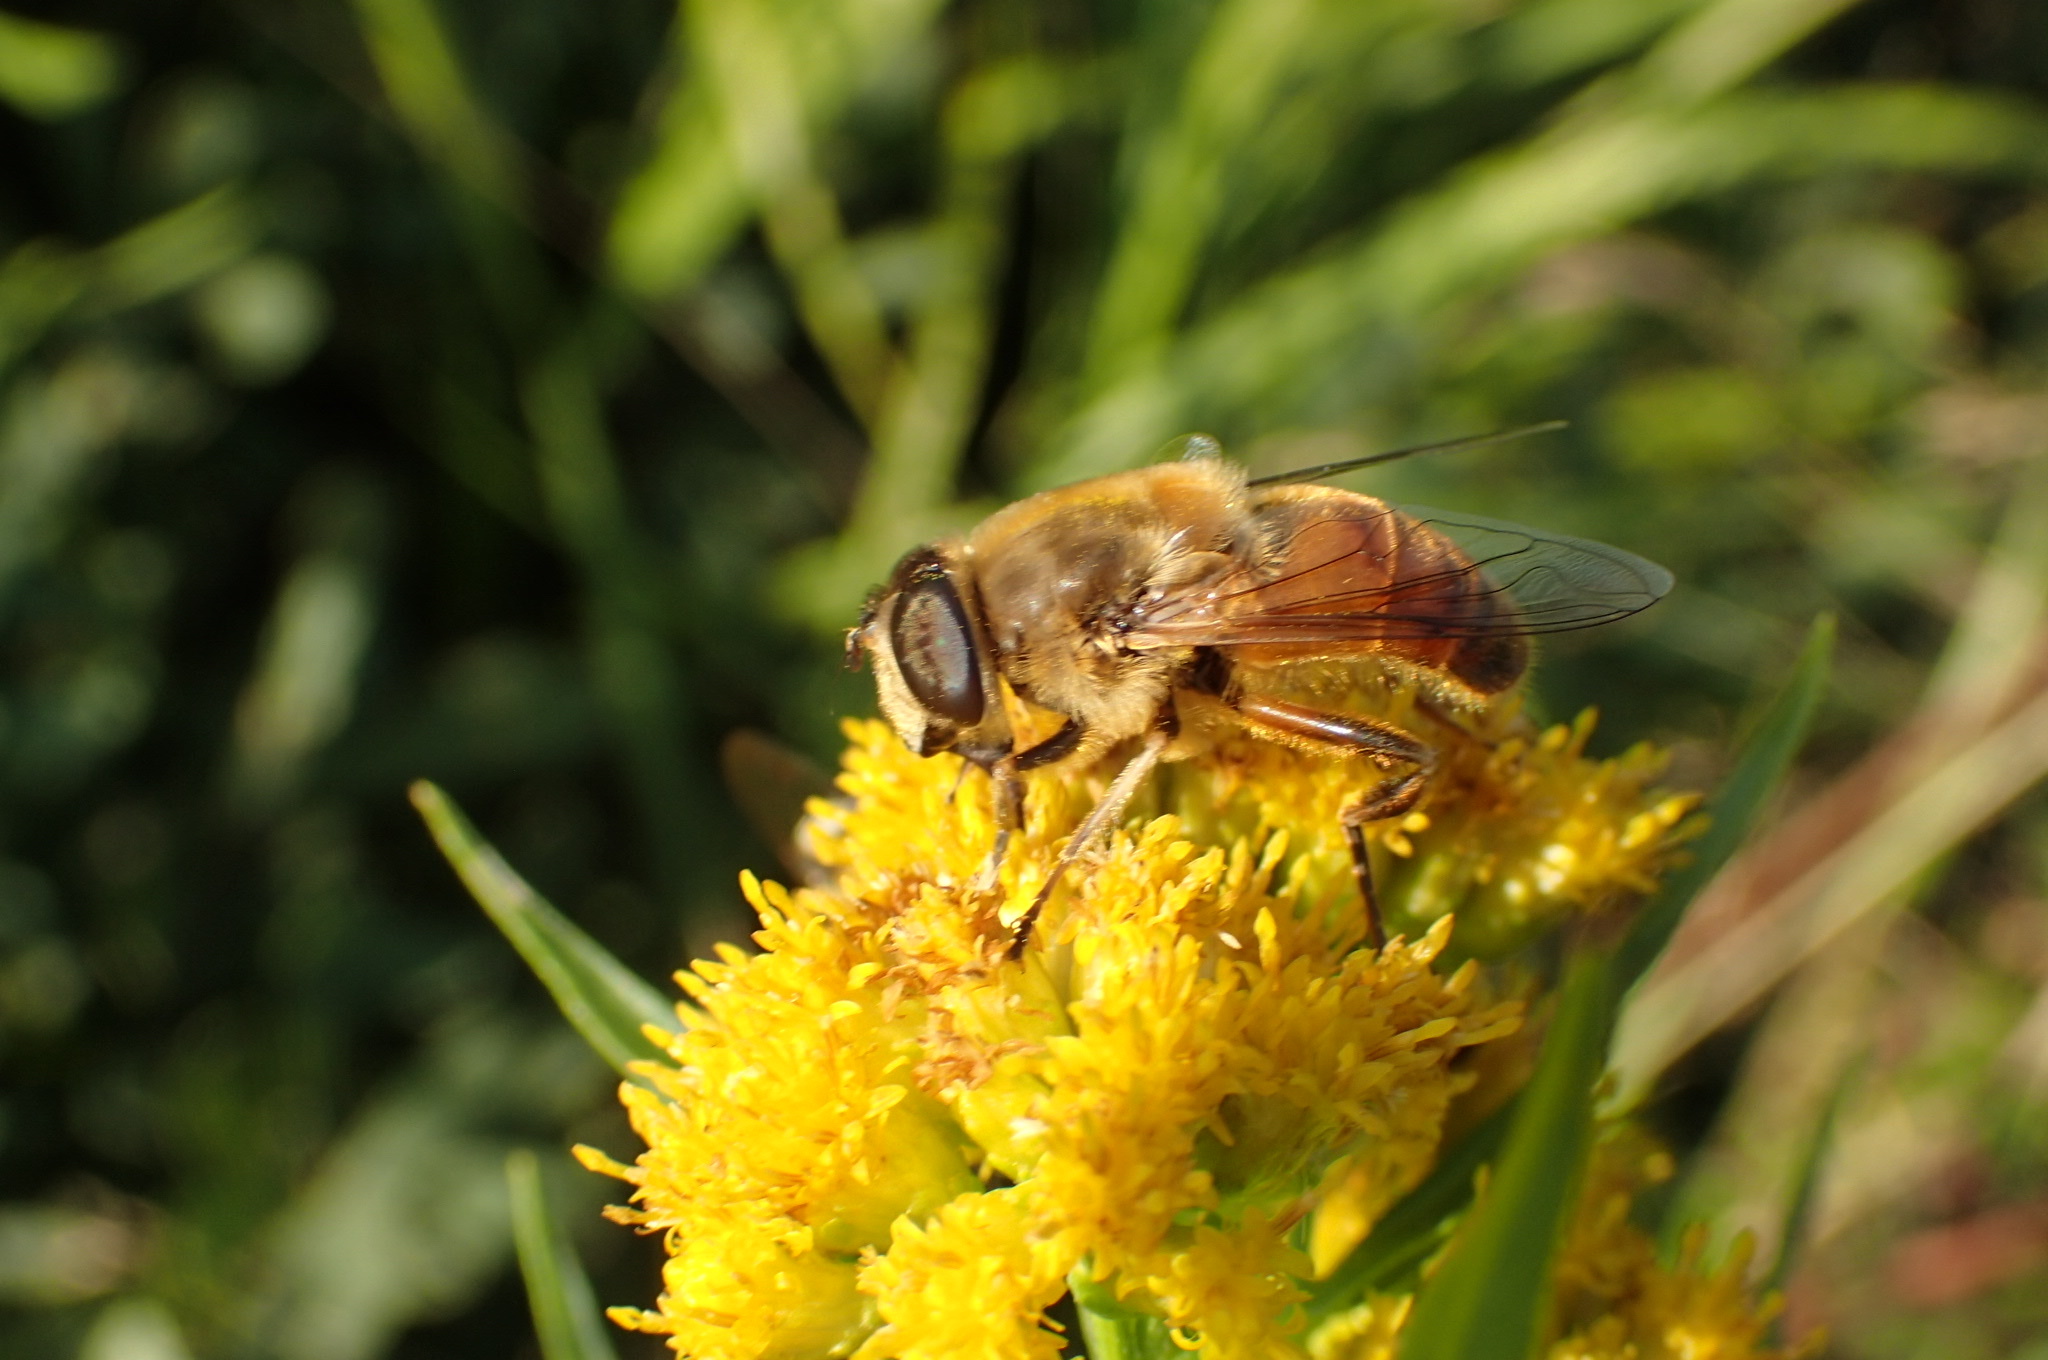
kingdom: Animalia
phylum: Arthropoda
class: Insecta
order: Diptera
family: Syrphidae
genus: Eristalis
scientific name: Eristalis tenax
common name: Drone fly
